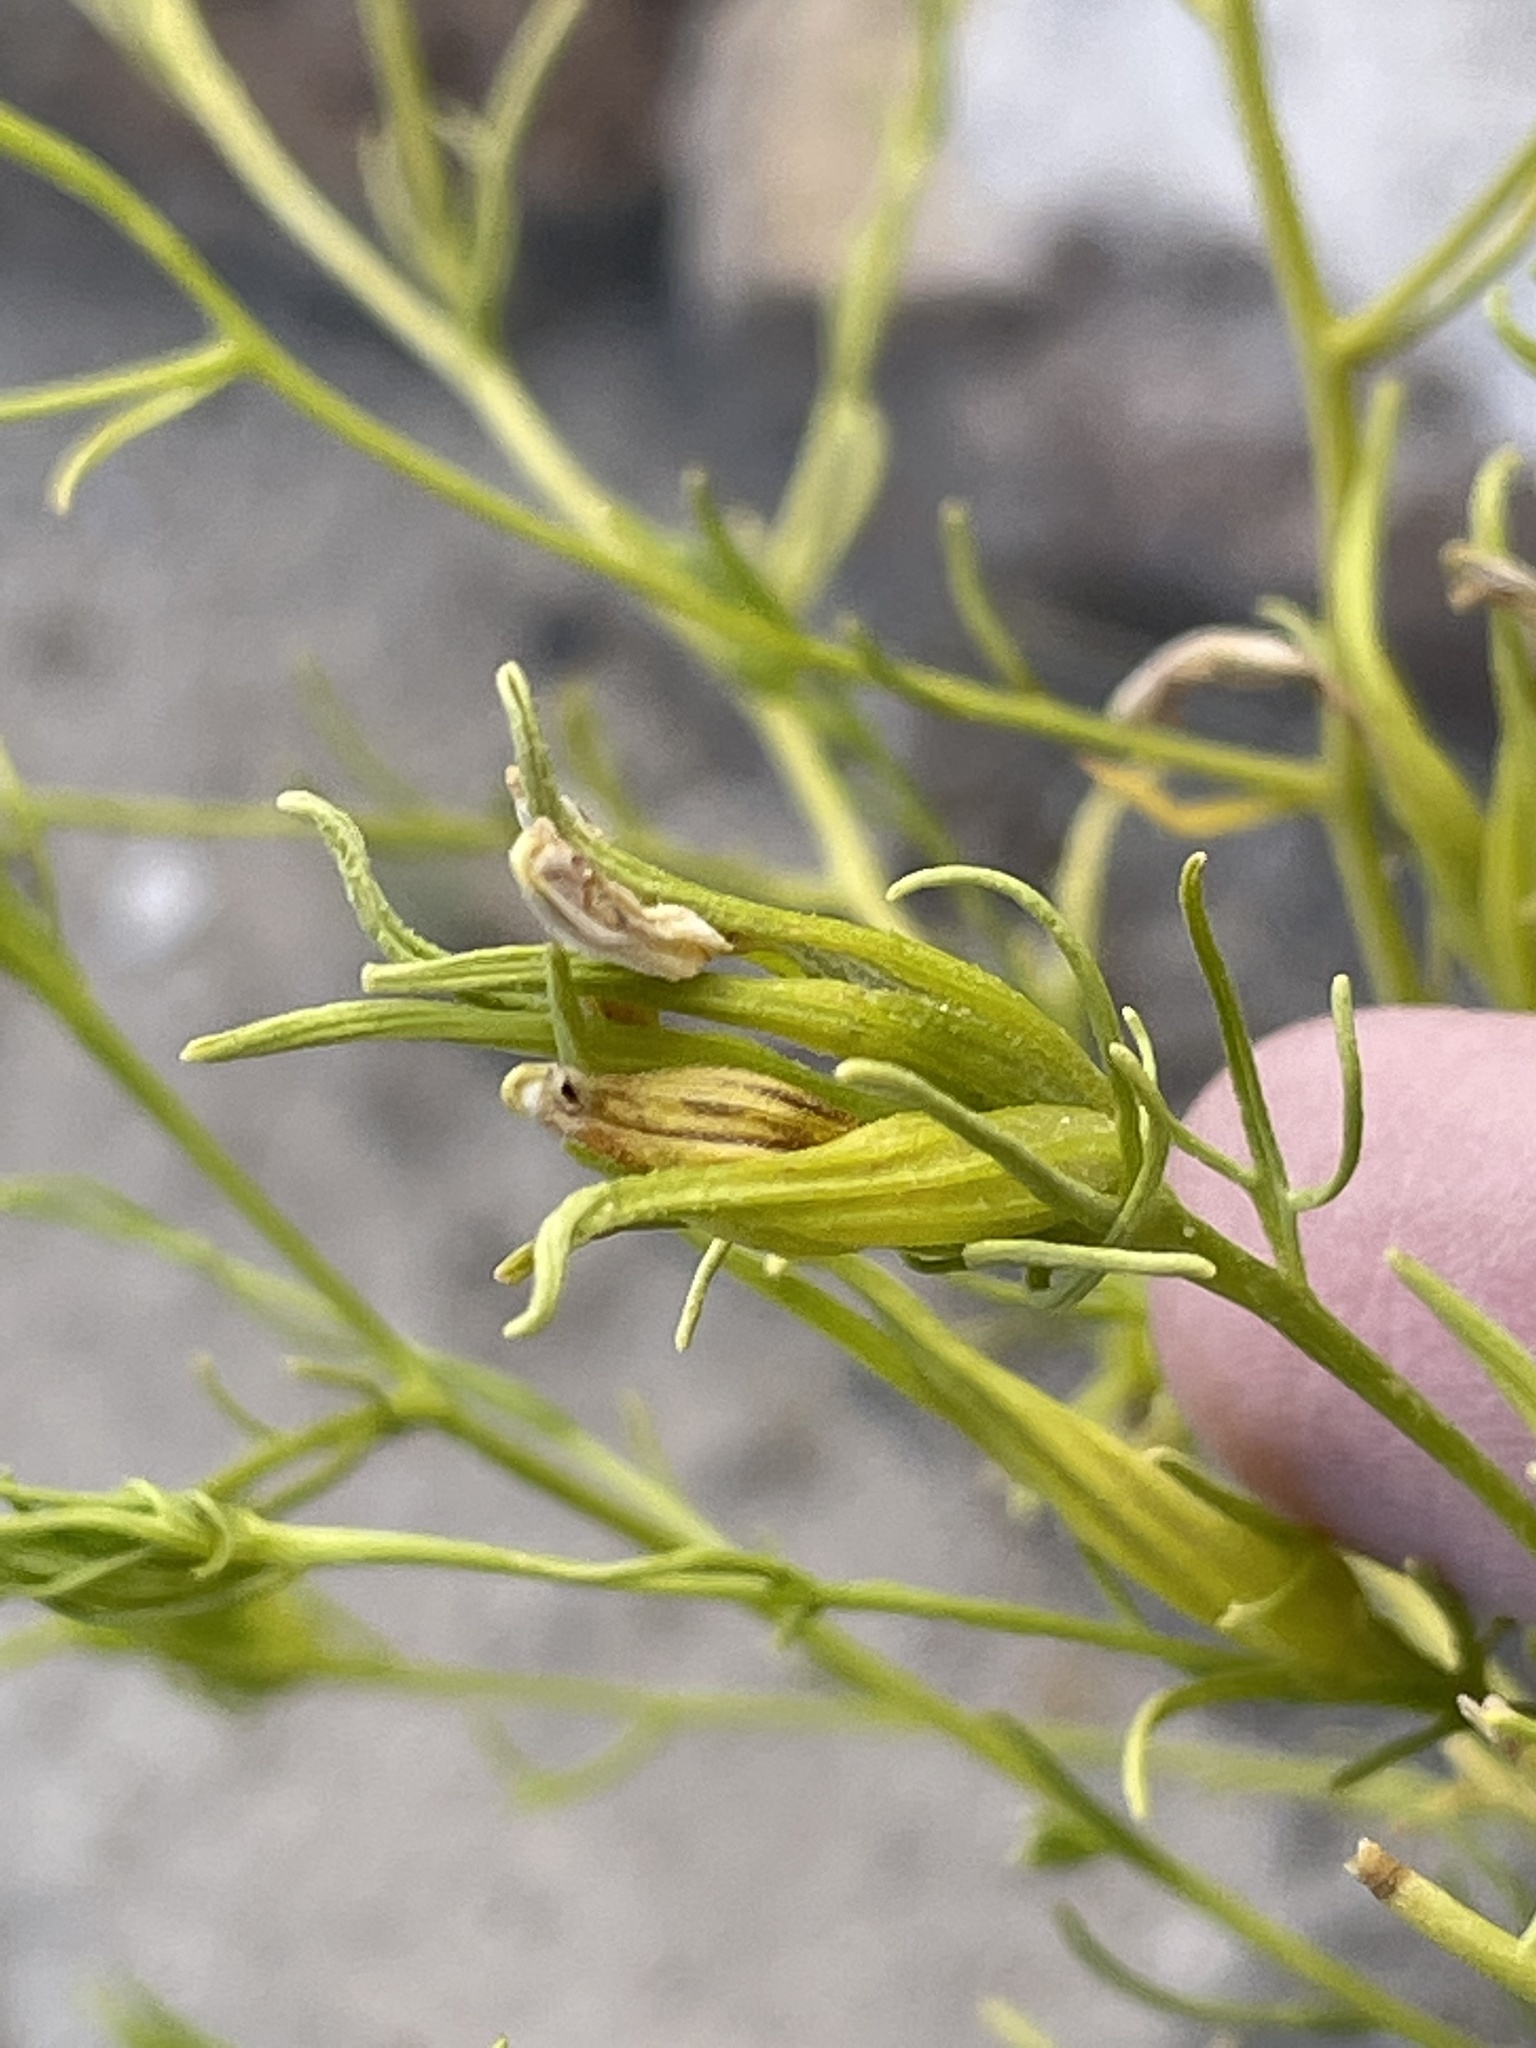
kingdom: Plantae
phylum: Tracheophyta
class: Magnoliopsida
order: Lamiales
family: Orobanchaceae
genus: Cordylanthus
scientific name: Cordylanthus wrightii
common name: Wright's birdsbeak
